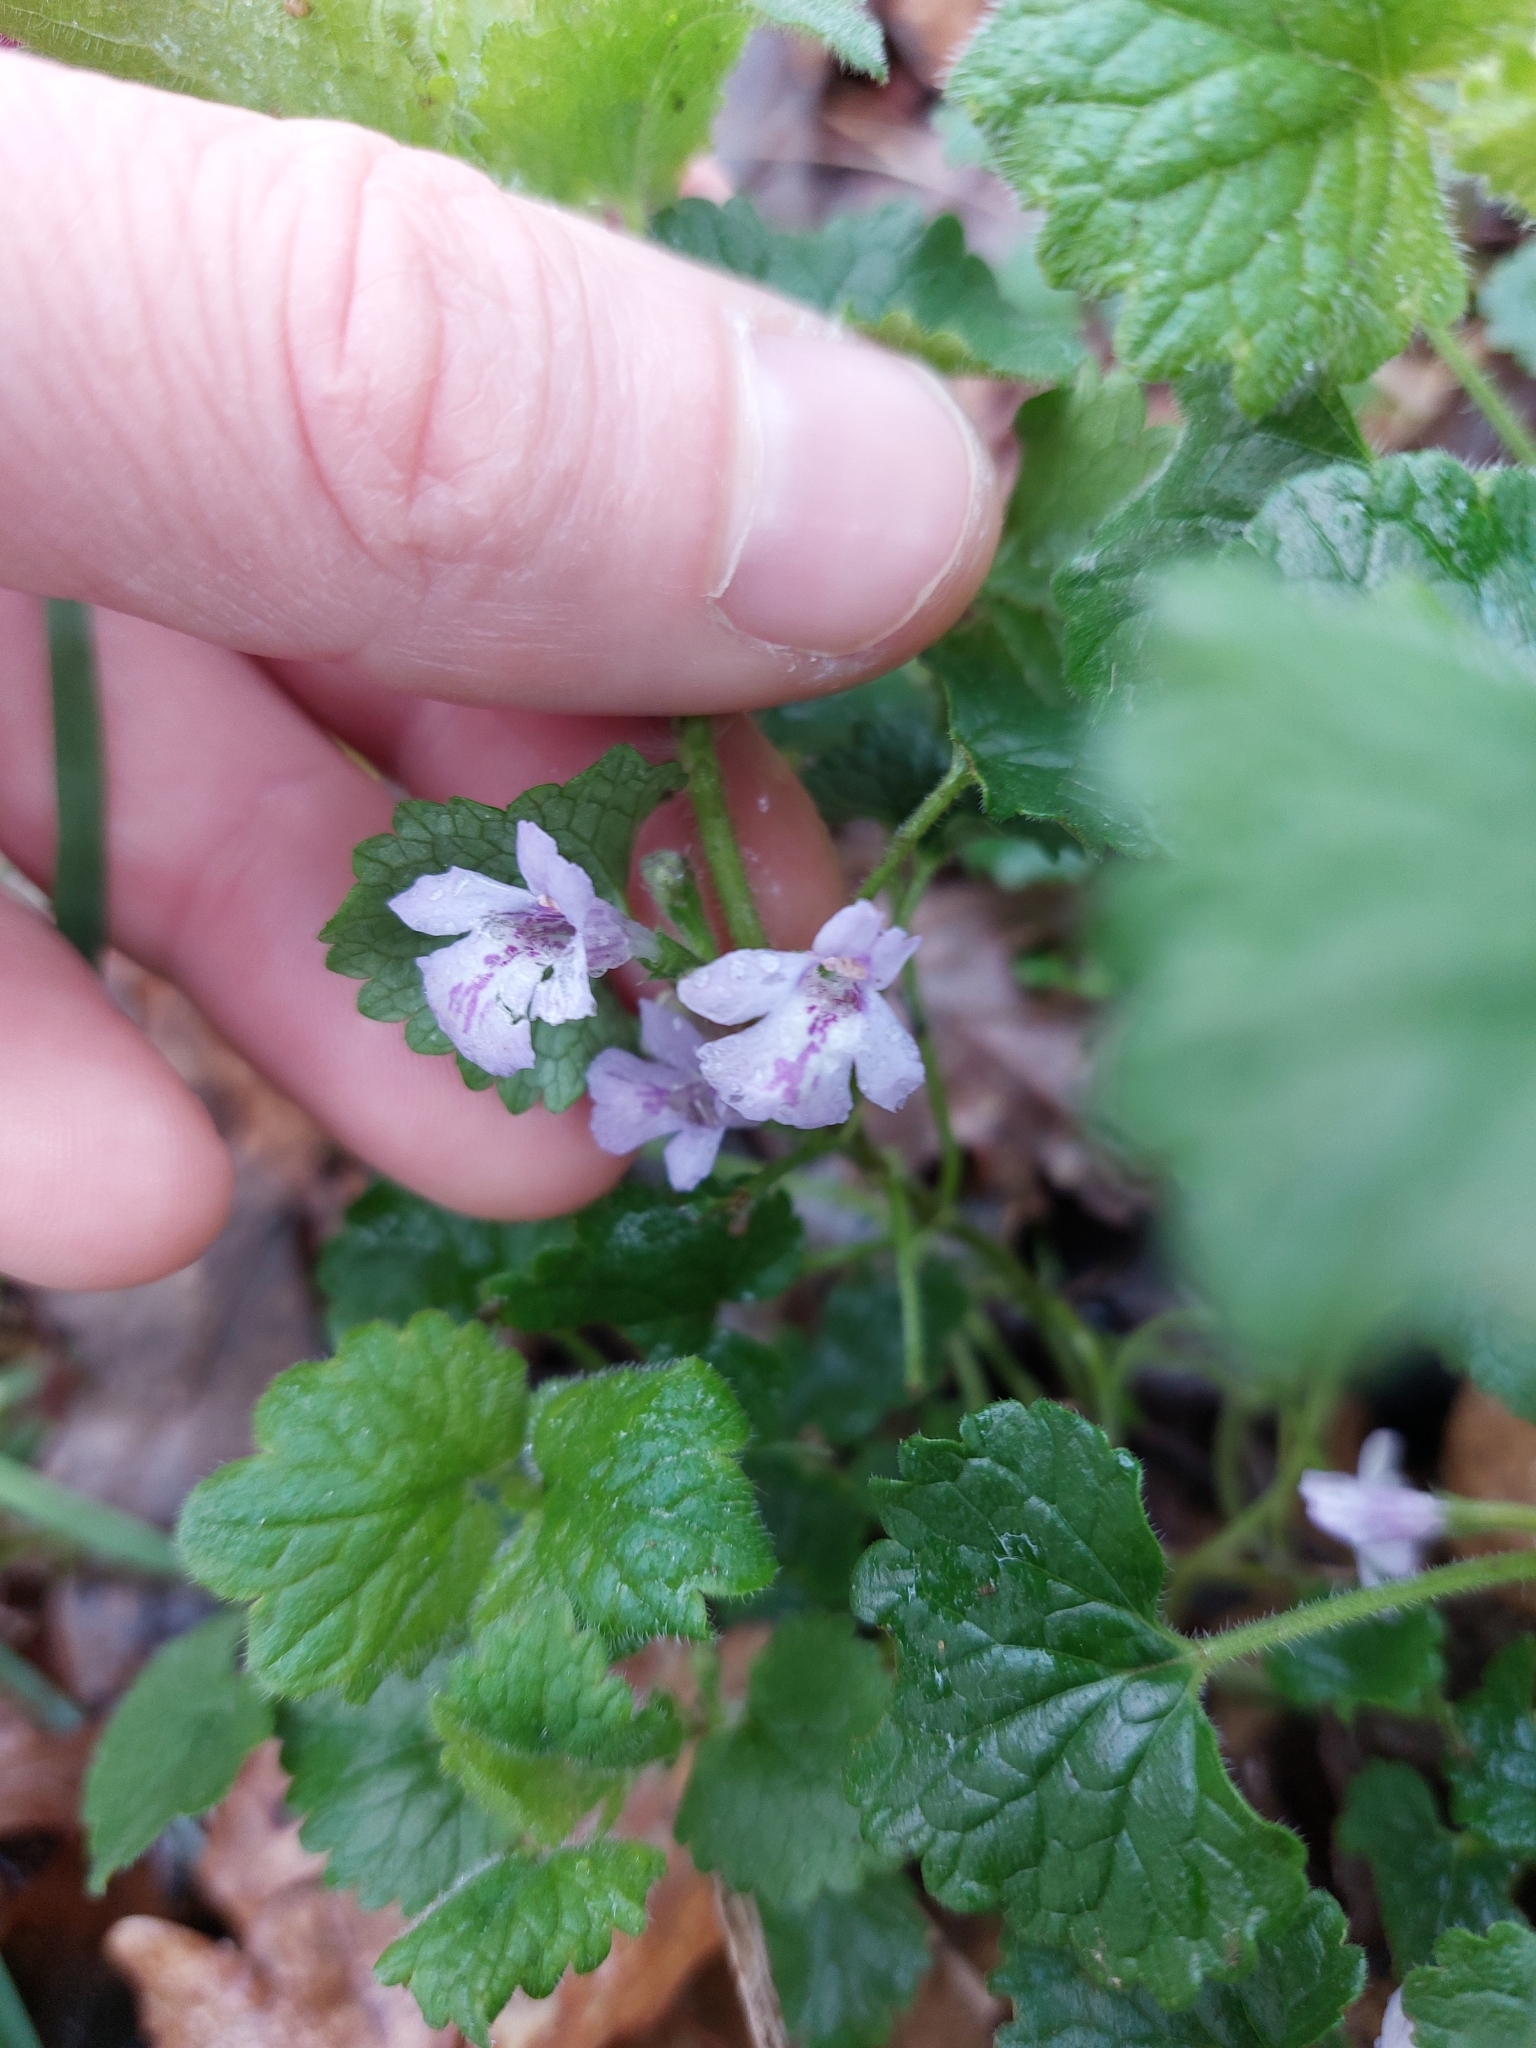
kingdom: Plantae
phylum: Tracheophyta
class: Magnoliopsida
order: Lamiales
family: Lamiaceae
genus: Glechoma
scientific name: Glechoma hederacea
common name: Ground ivy
